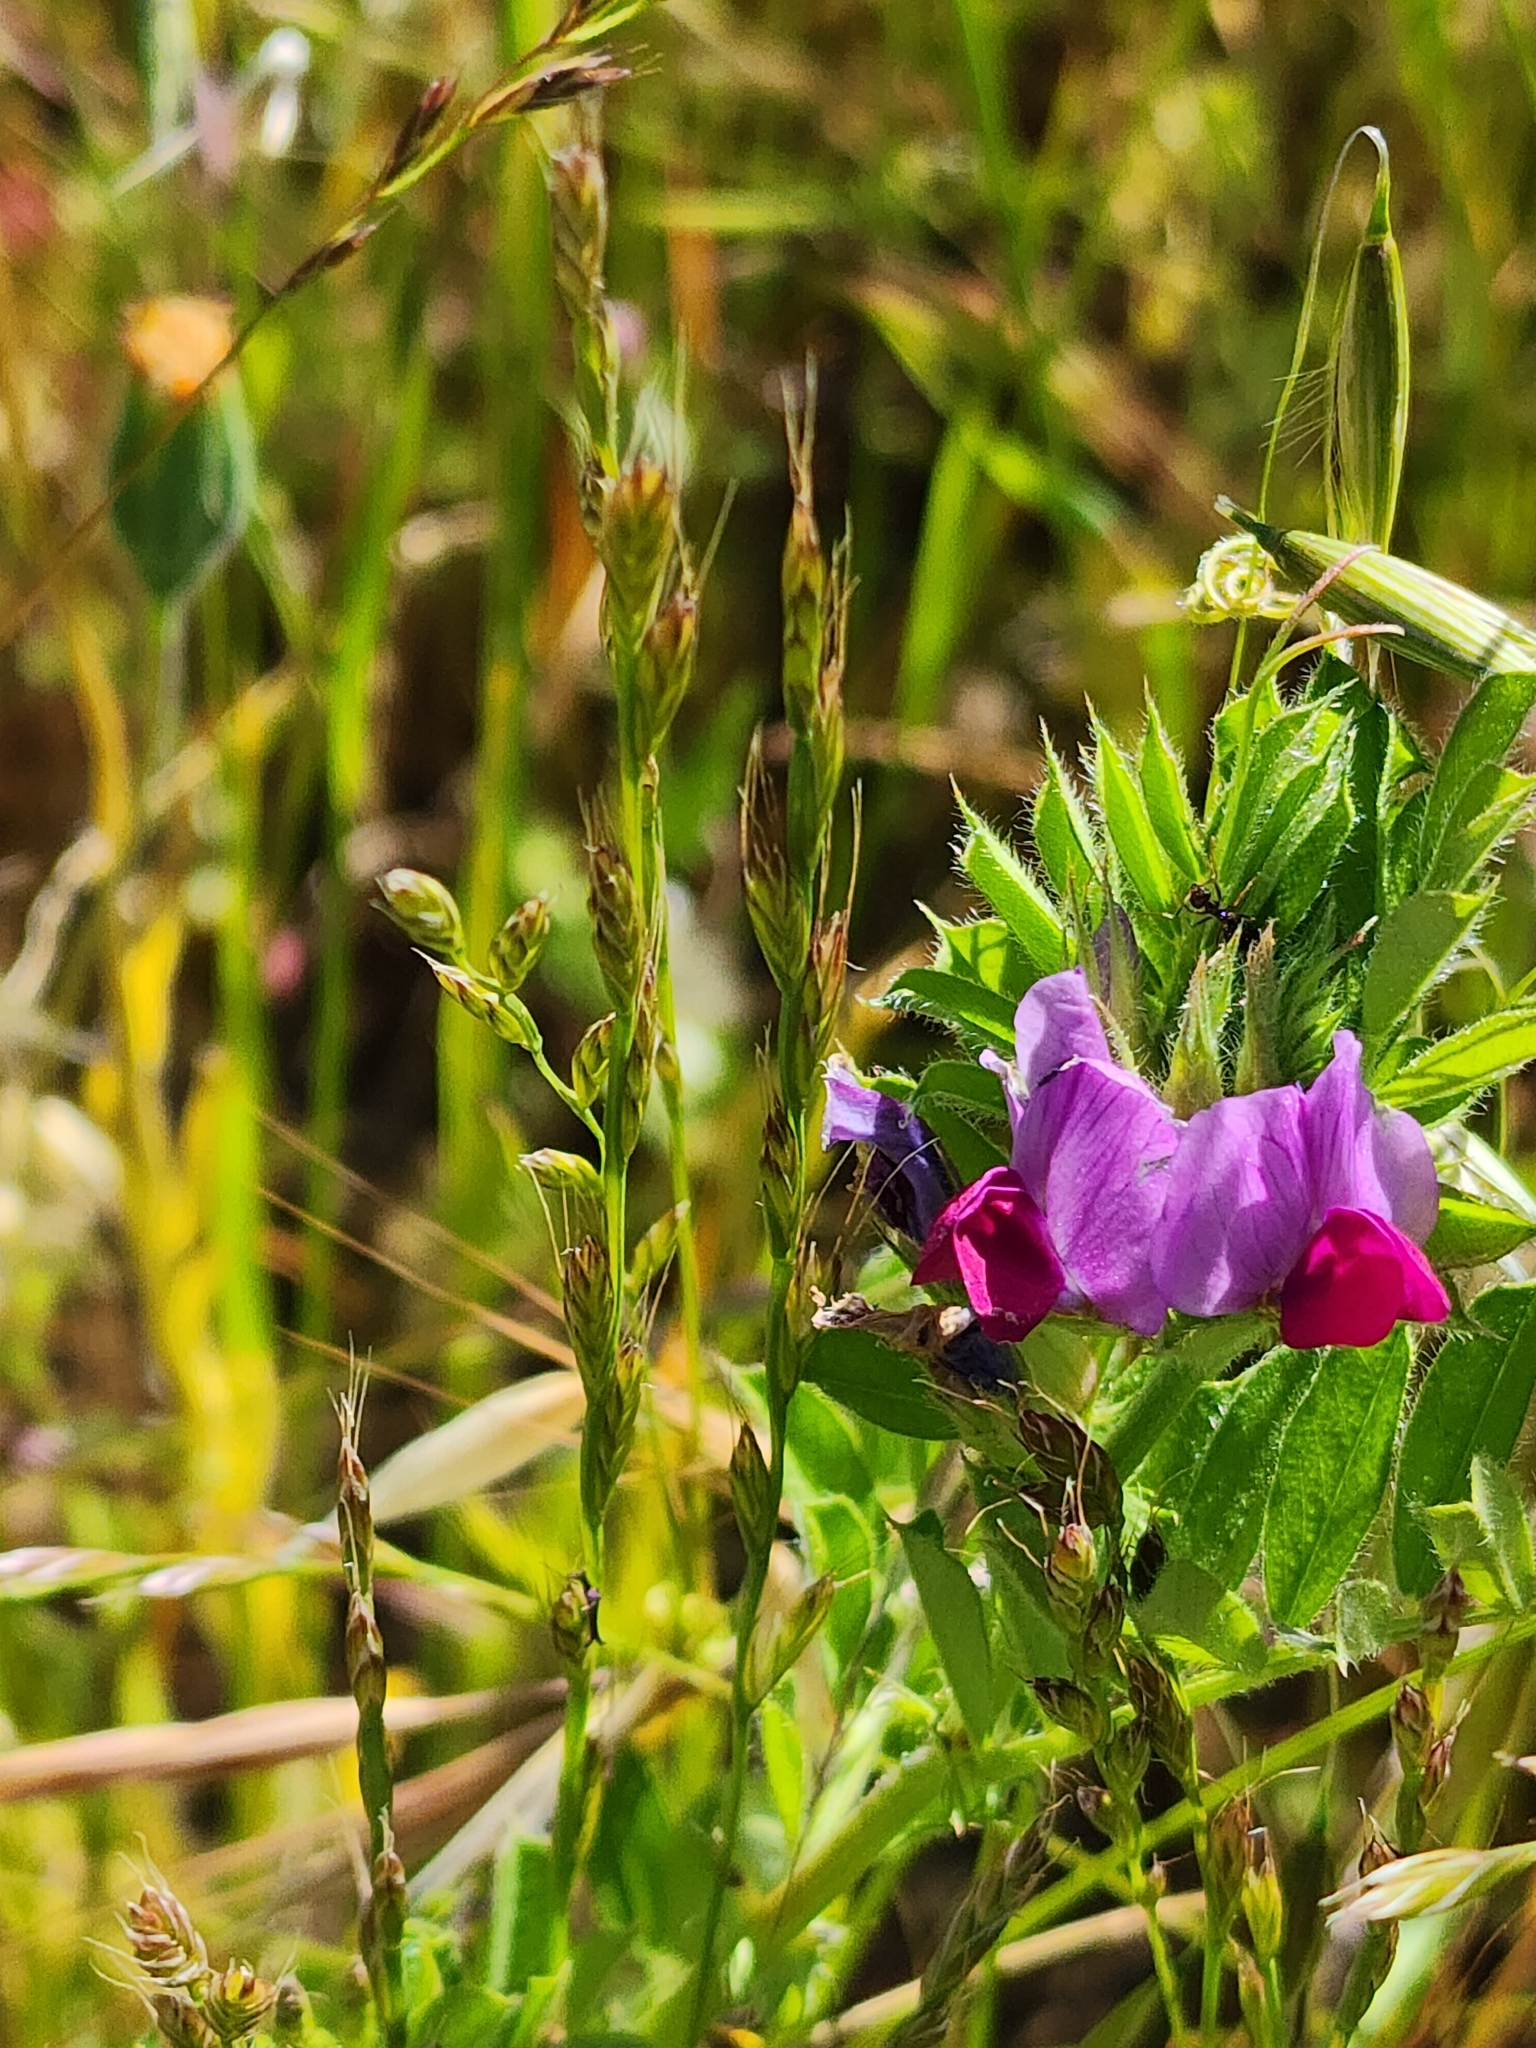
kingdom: Plantae
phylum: Tracheophyta
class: Magnoliopsida
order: Fabales
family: Fabaceae
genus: Vicia
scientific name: Vicia sativa
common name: Garden vetch
